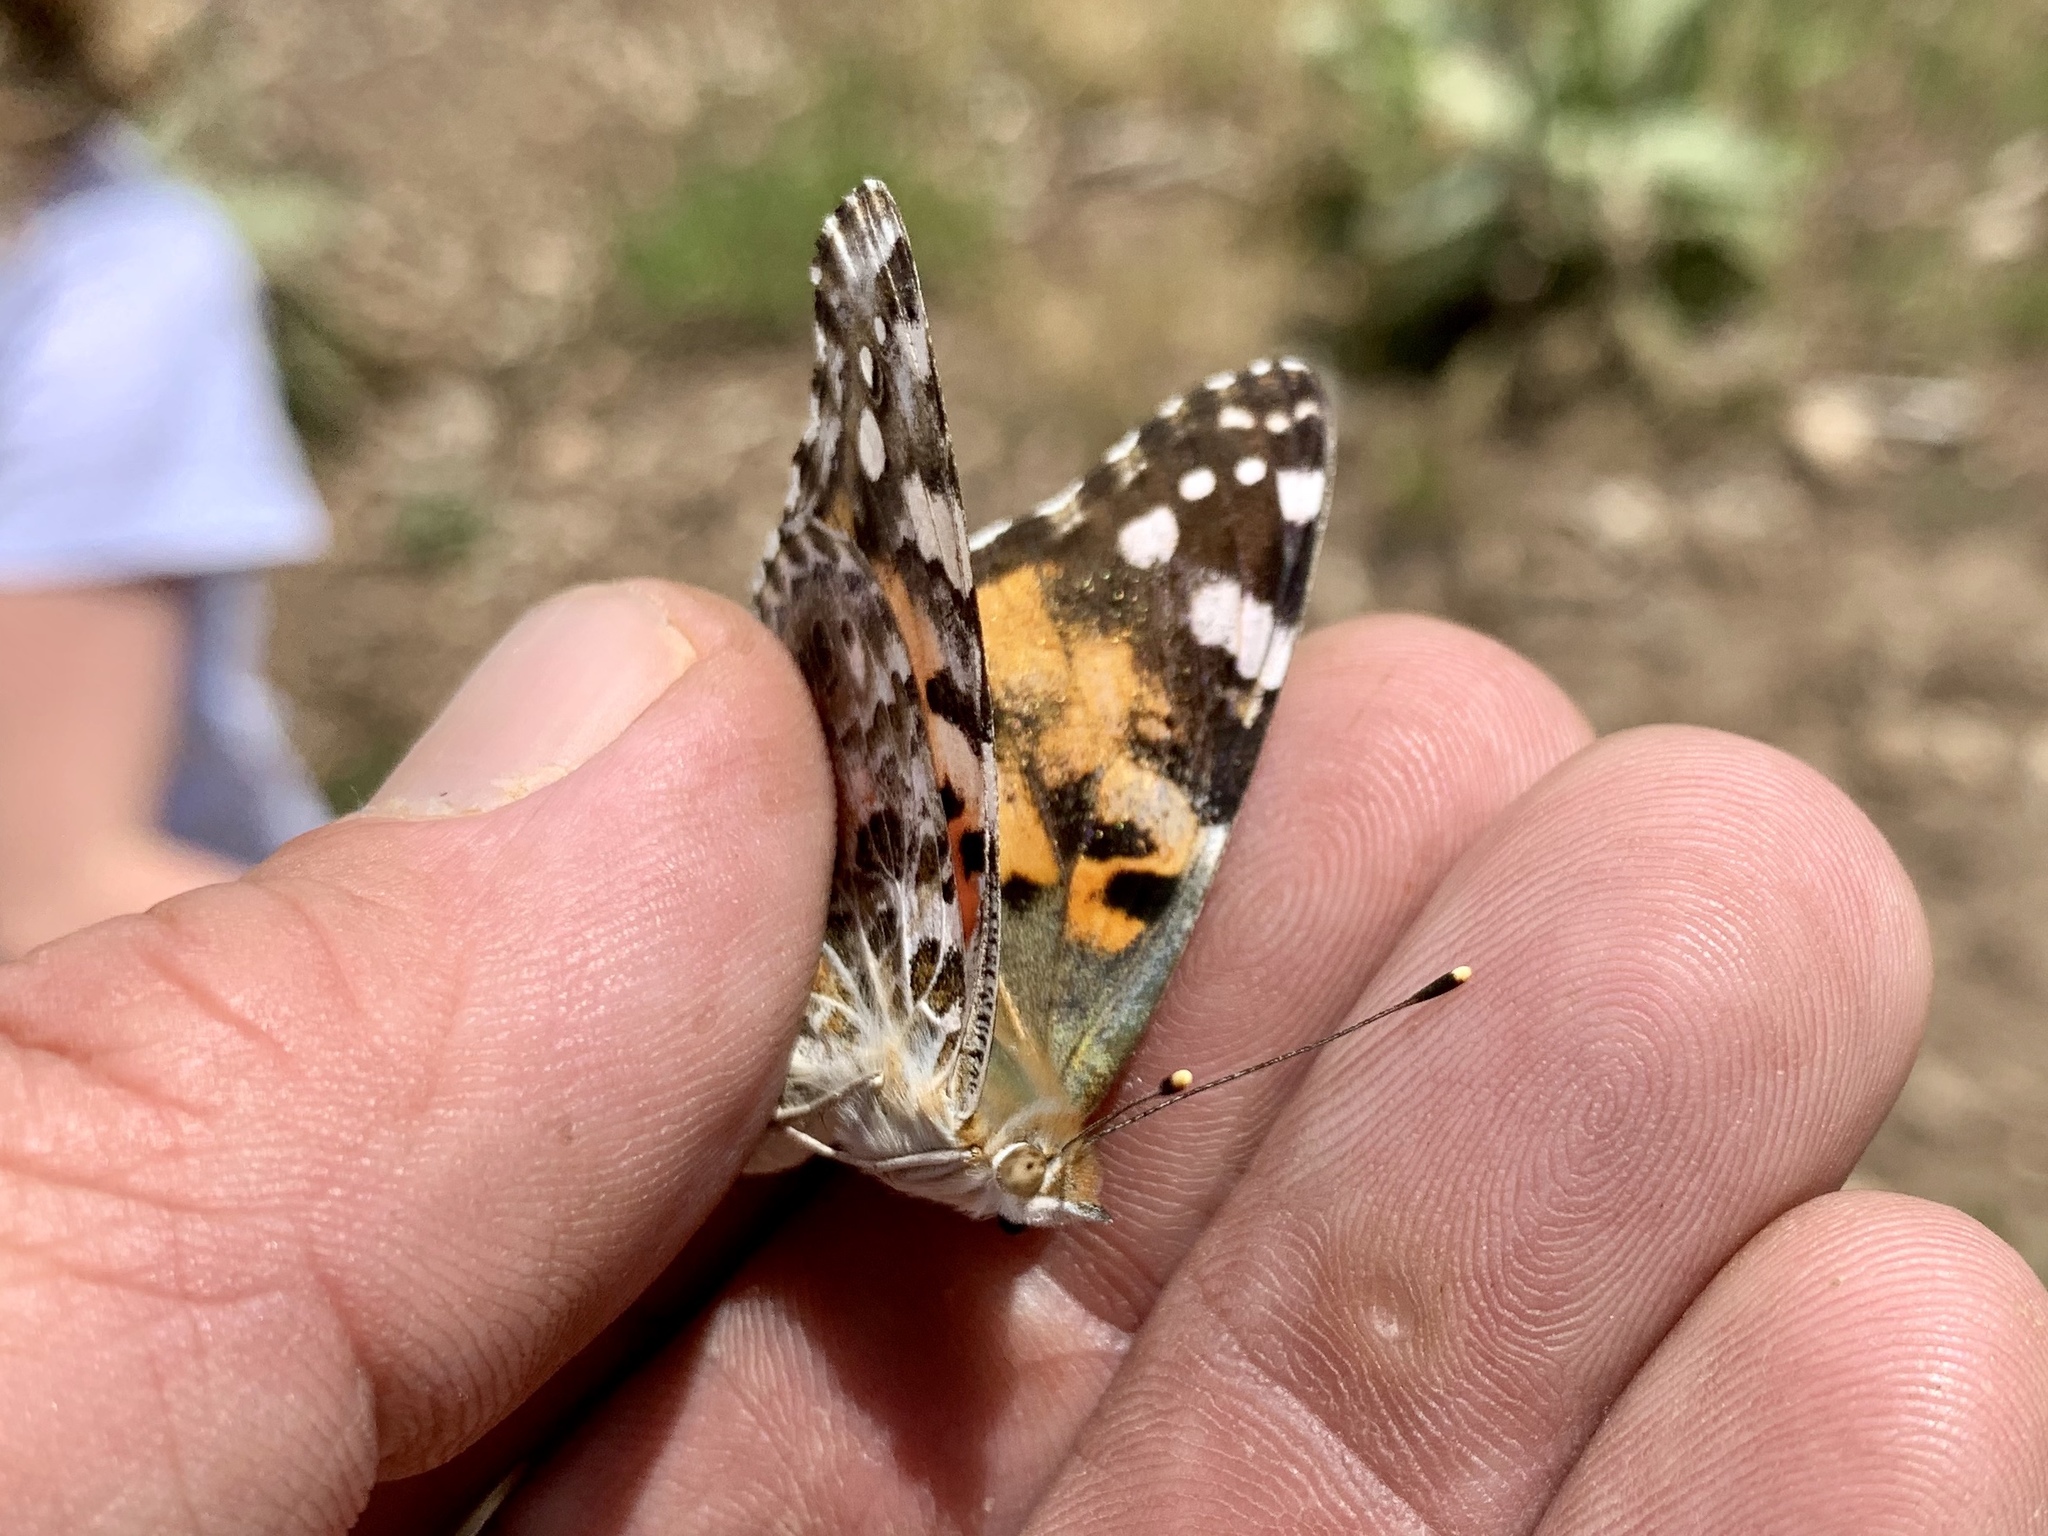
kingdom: Animalia
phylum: Arthropoda
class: Insecta
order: Lepidoptera
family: Nymphalidae
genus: Vanessa
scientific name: Vanessa cardui
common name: Painted lady
